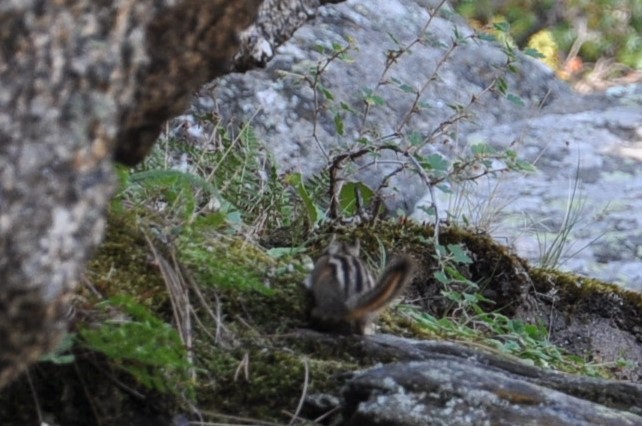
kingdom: Animalia
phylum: Chordata
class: Mammalia
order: Rodentia
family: Sciuridae
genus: Tamias
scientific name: Tamias minimus
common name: Least chipmunk
